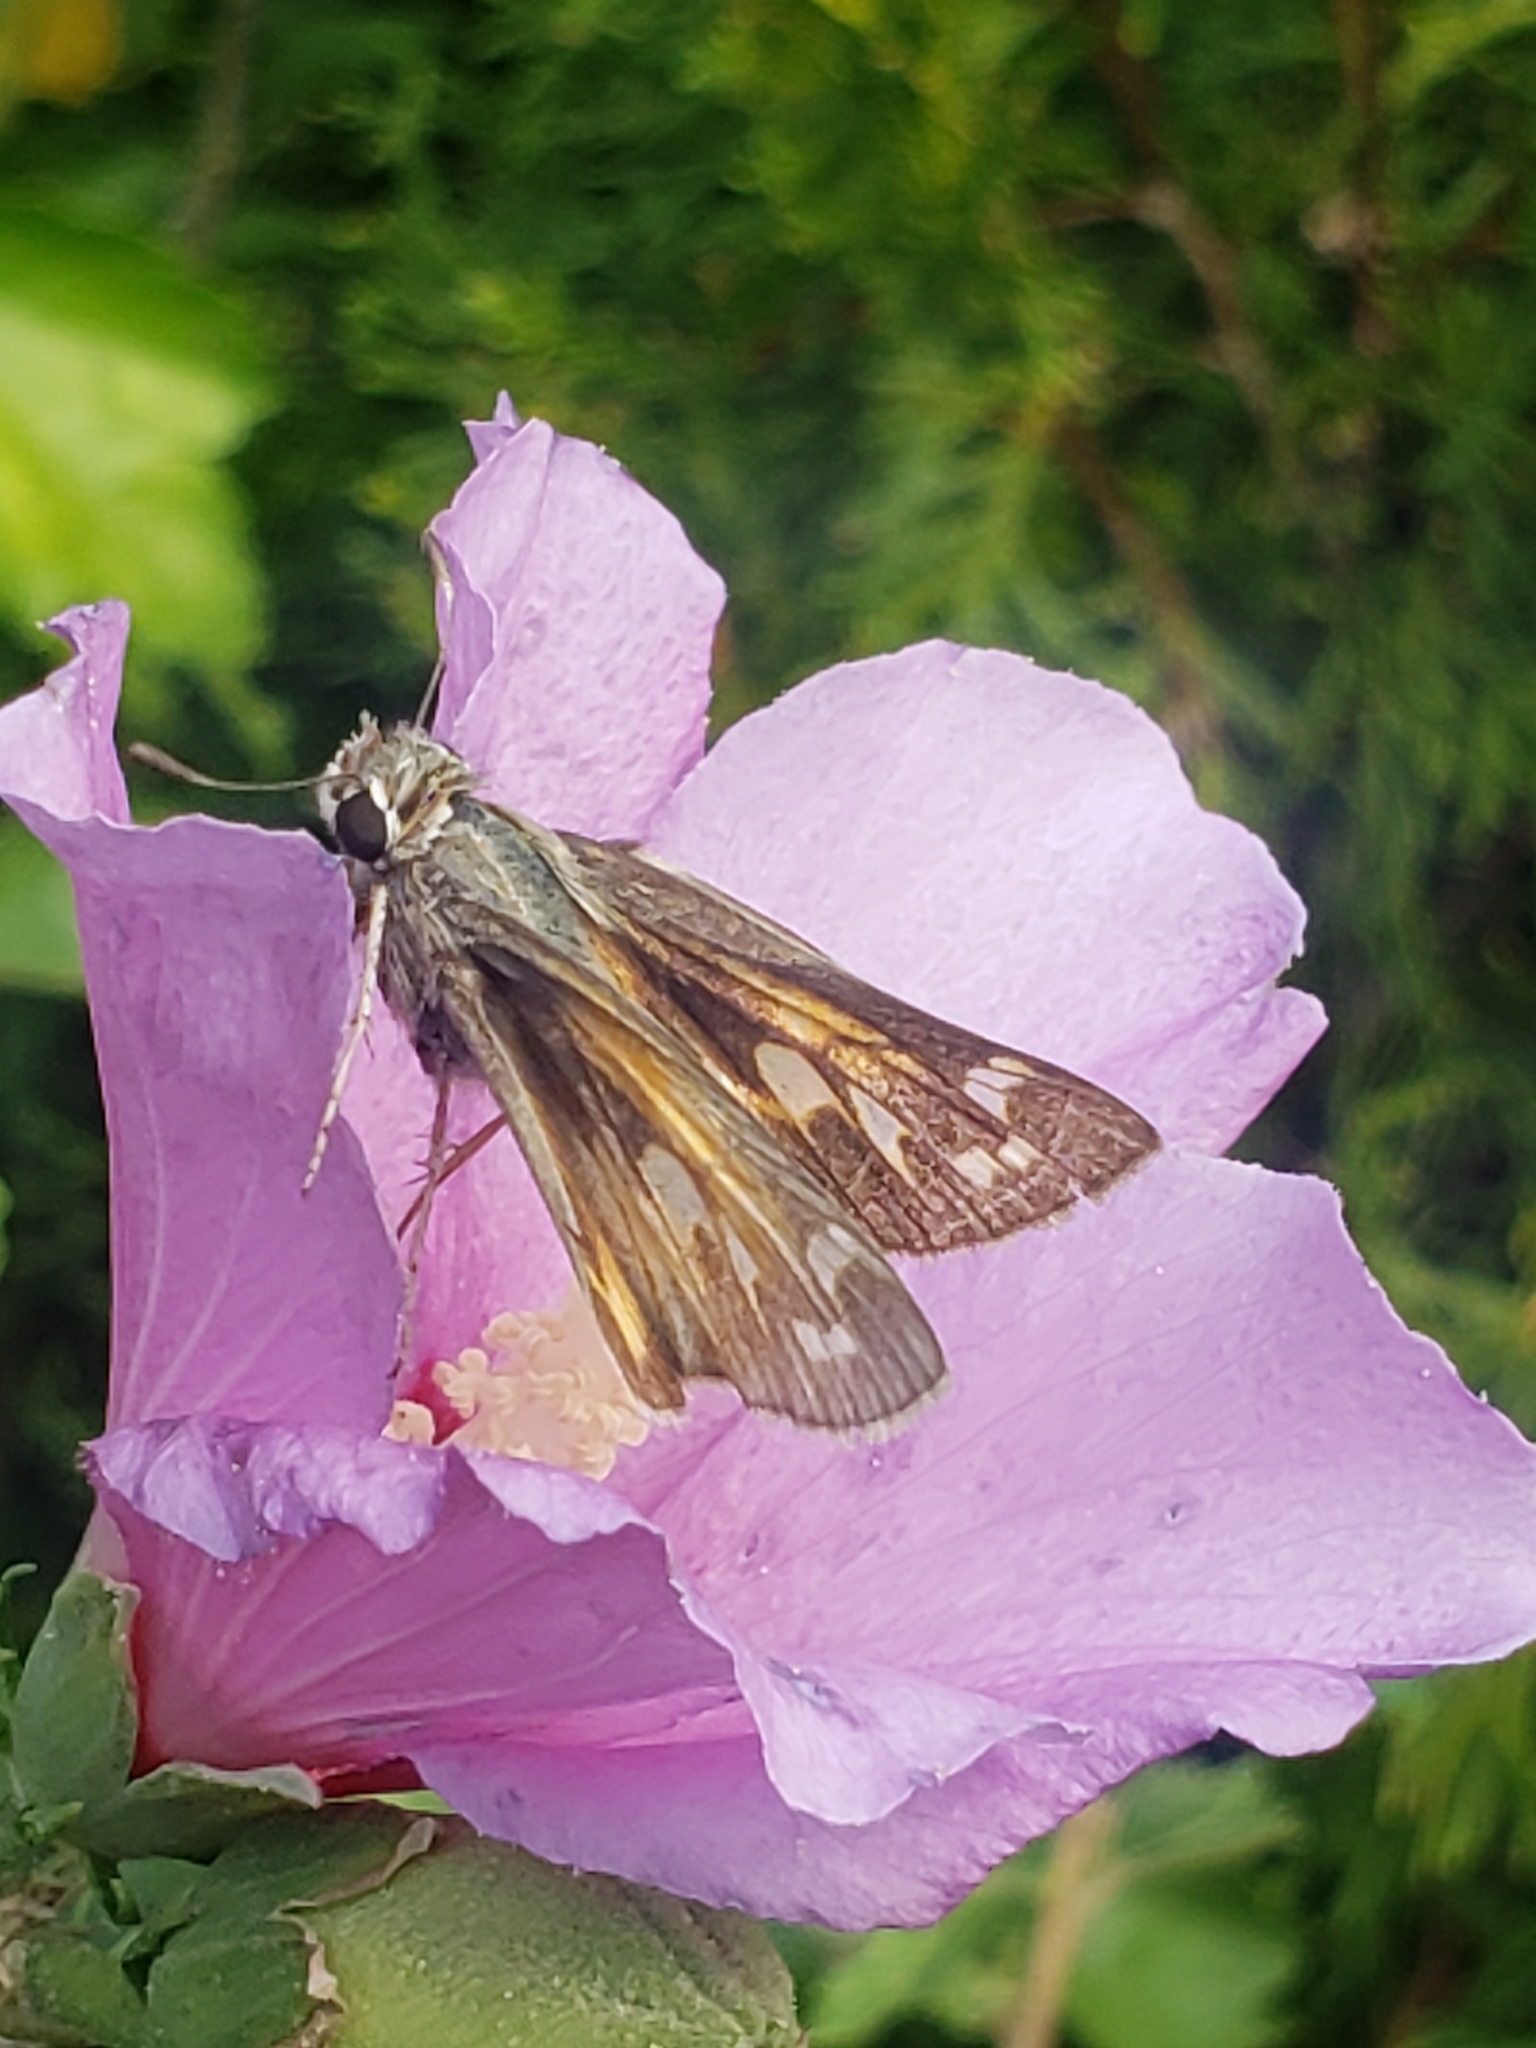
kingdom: Animalia
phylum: Arthropoda
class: Insecta
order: Lepidoptera
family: Hesperiidae
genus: Atalopedes
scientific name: Atalopedes
